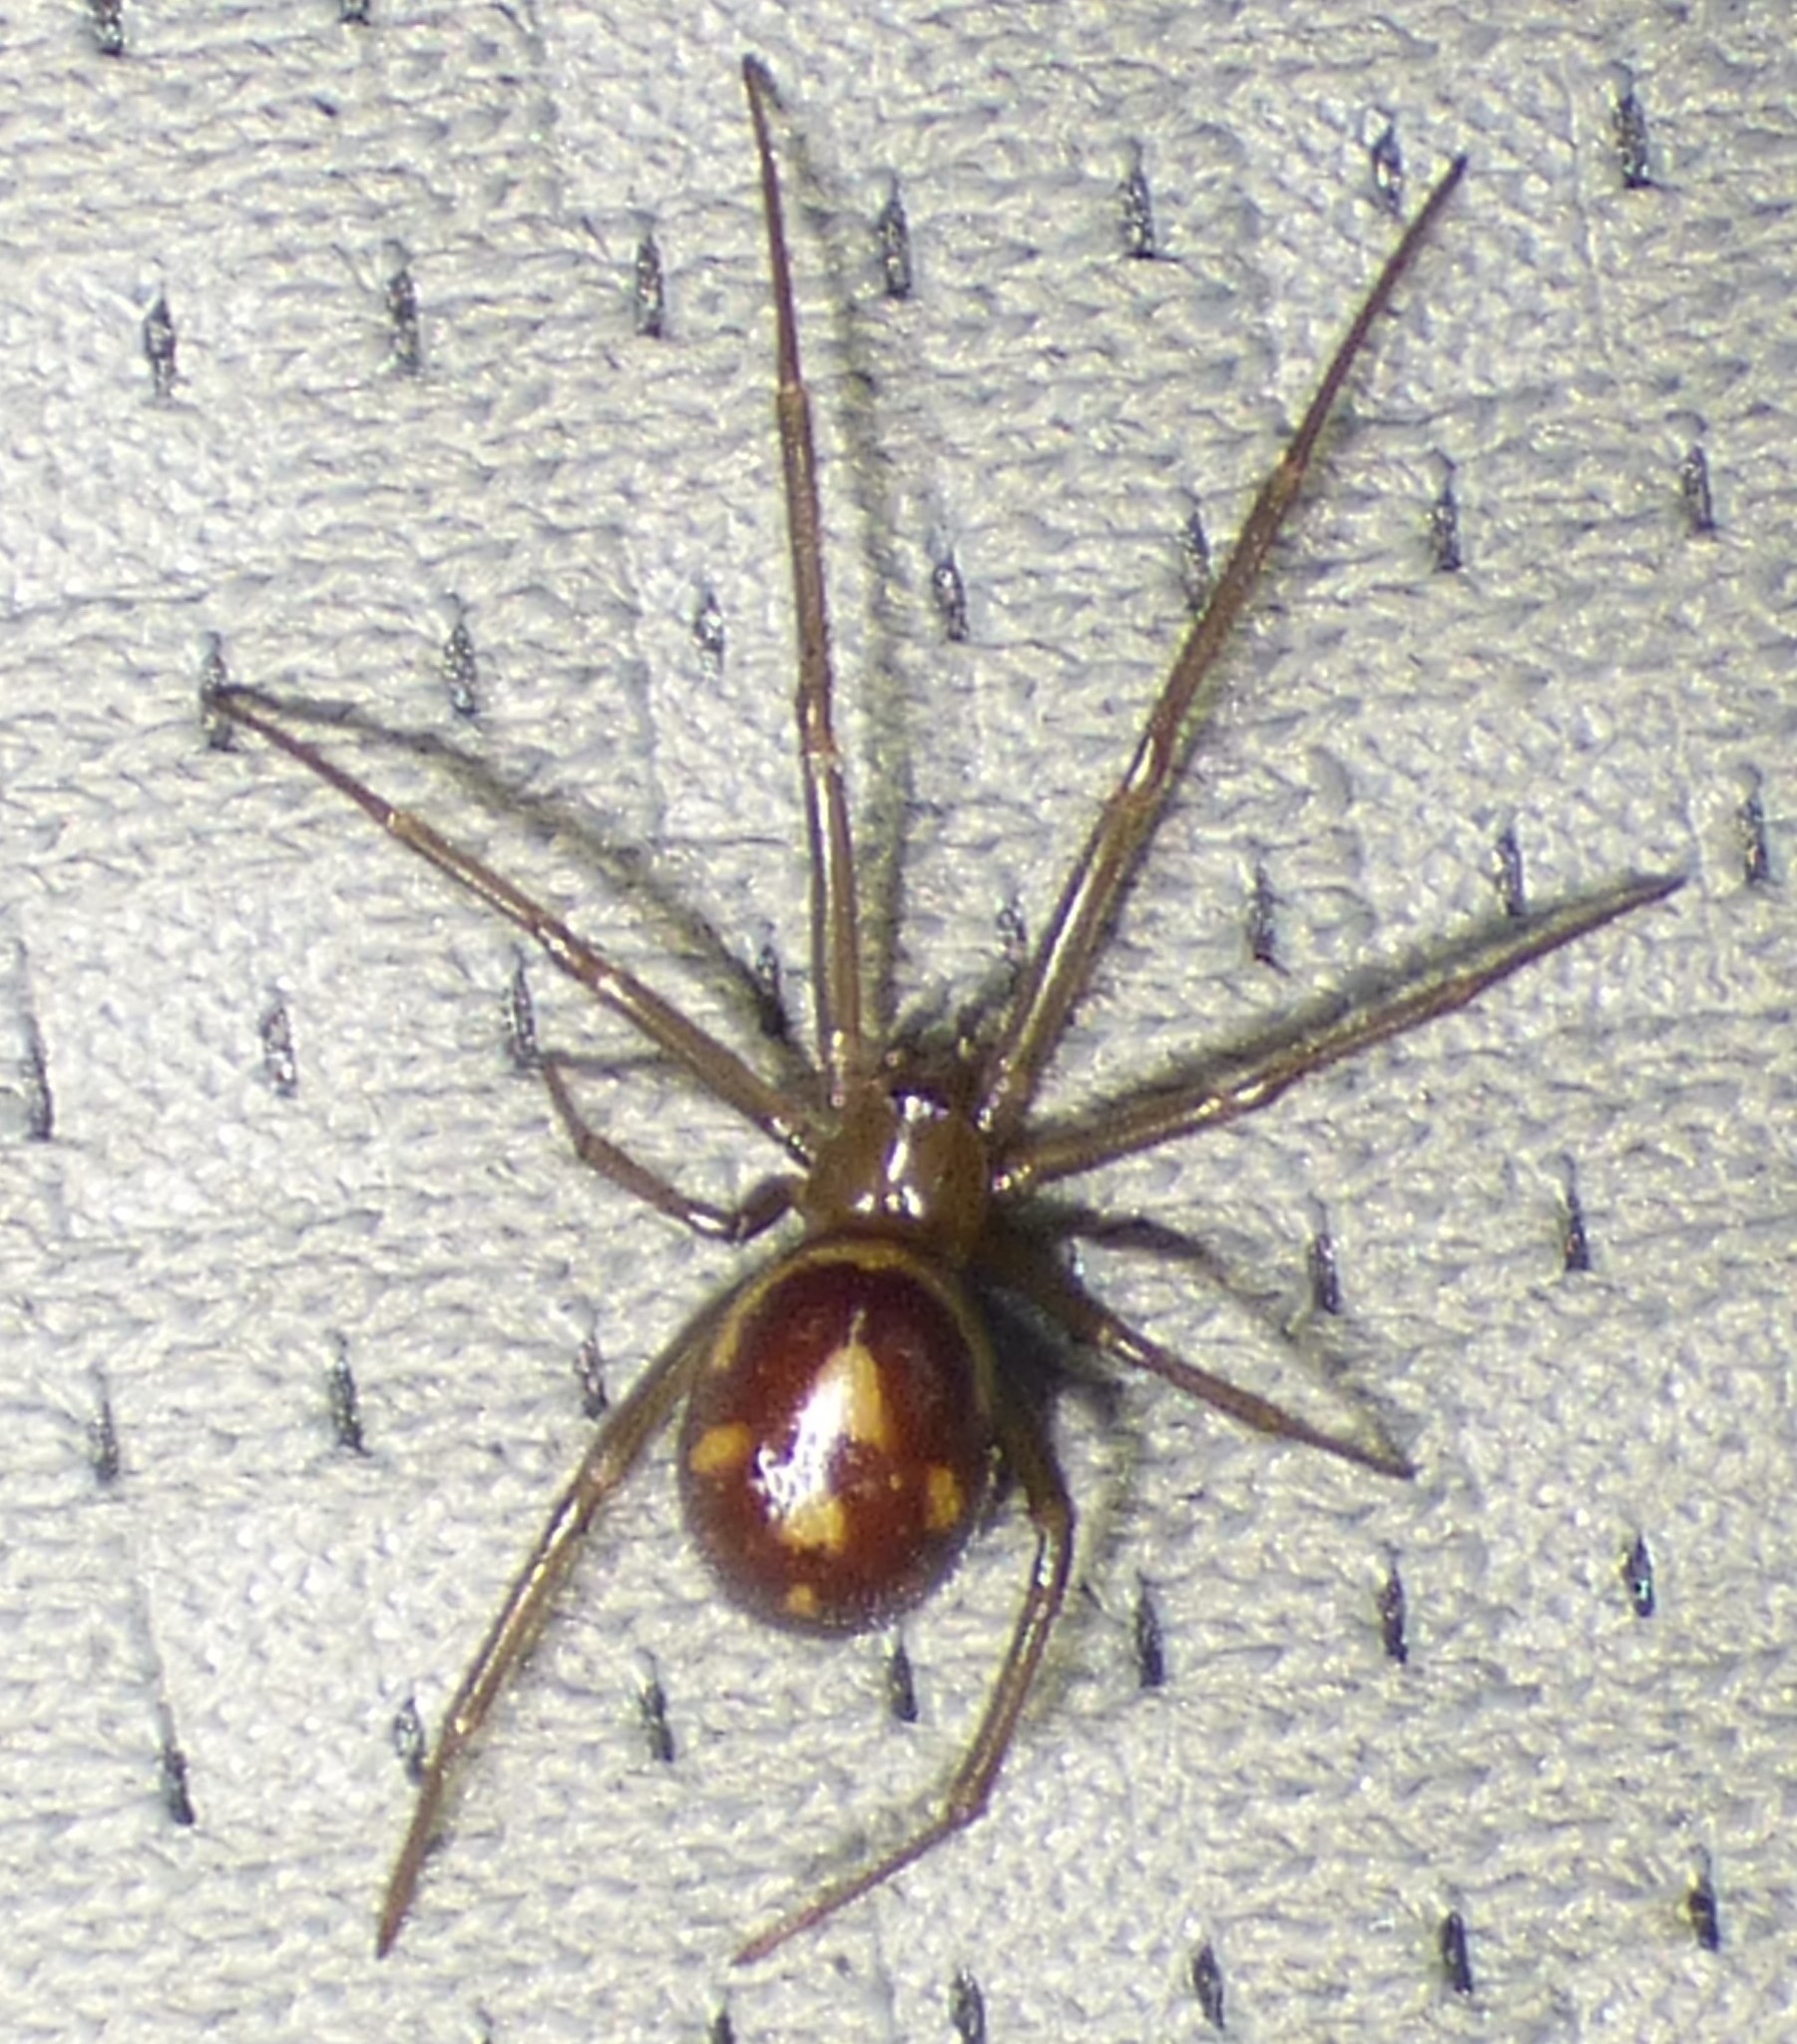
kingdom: Animalia
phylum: Arthropoda
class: Arachnida
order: Araneae
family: Theridiidae
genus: Steatoda
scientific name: Steatoda grossa
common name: False black widow
